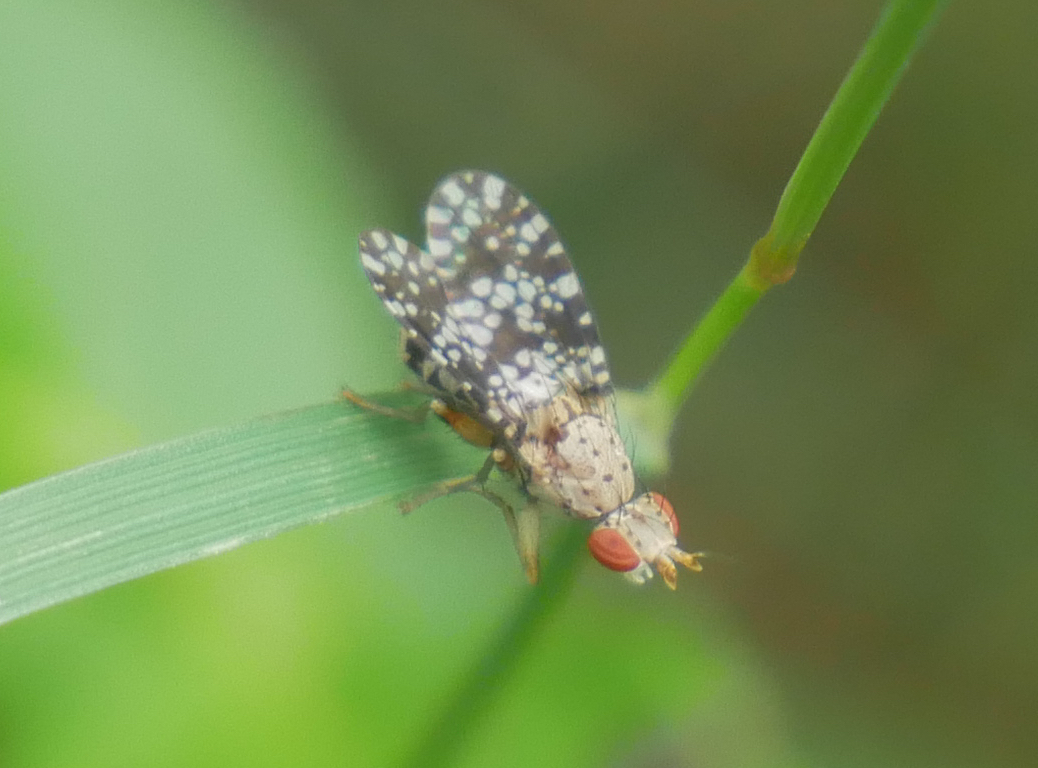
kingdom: Animalia
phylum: Arthropoda
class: Insecta
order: Diptera
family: Sciomyzidae
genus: Trypetoptera
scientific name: Trypetoptera punctulata
